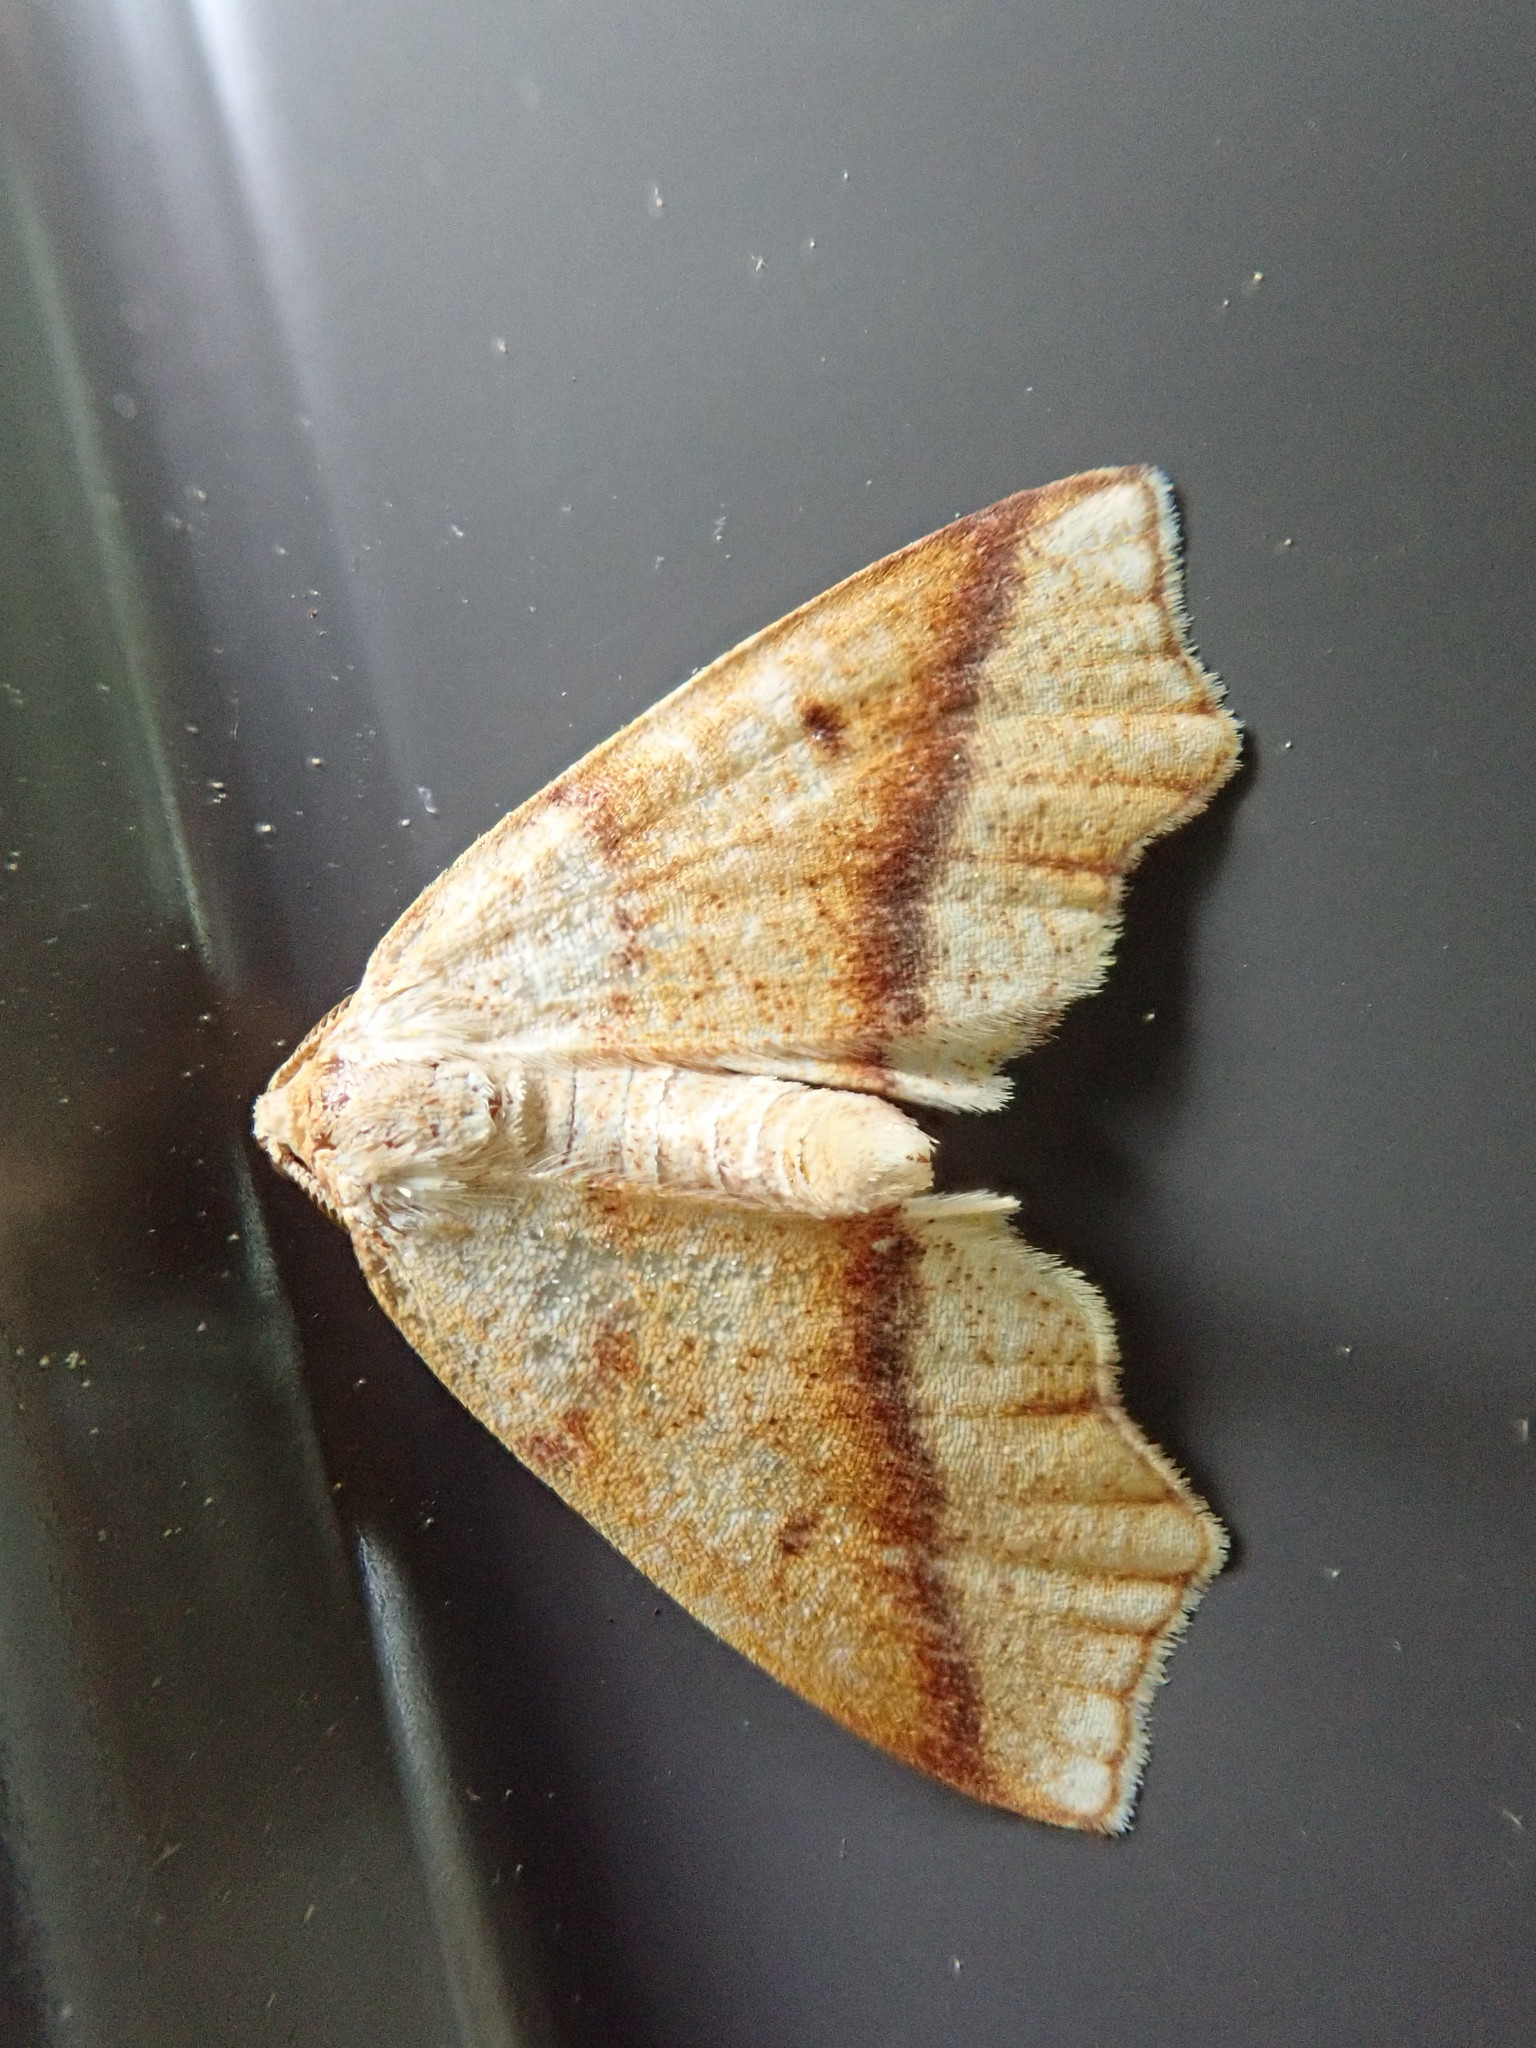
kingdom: Animalia
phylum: Arthropoda
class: Insecta
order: Lepidoptera
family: Geometridae
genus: Plagodis
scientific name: Plagodis alcoolaria
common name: Hollow-spotted plagodis
